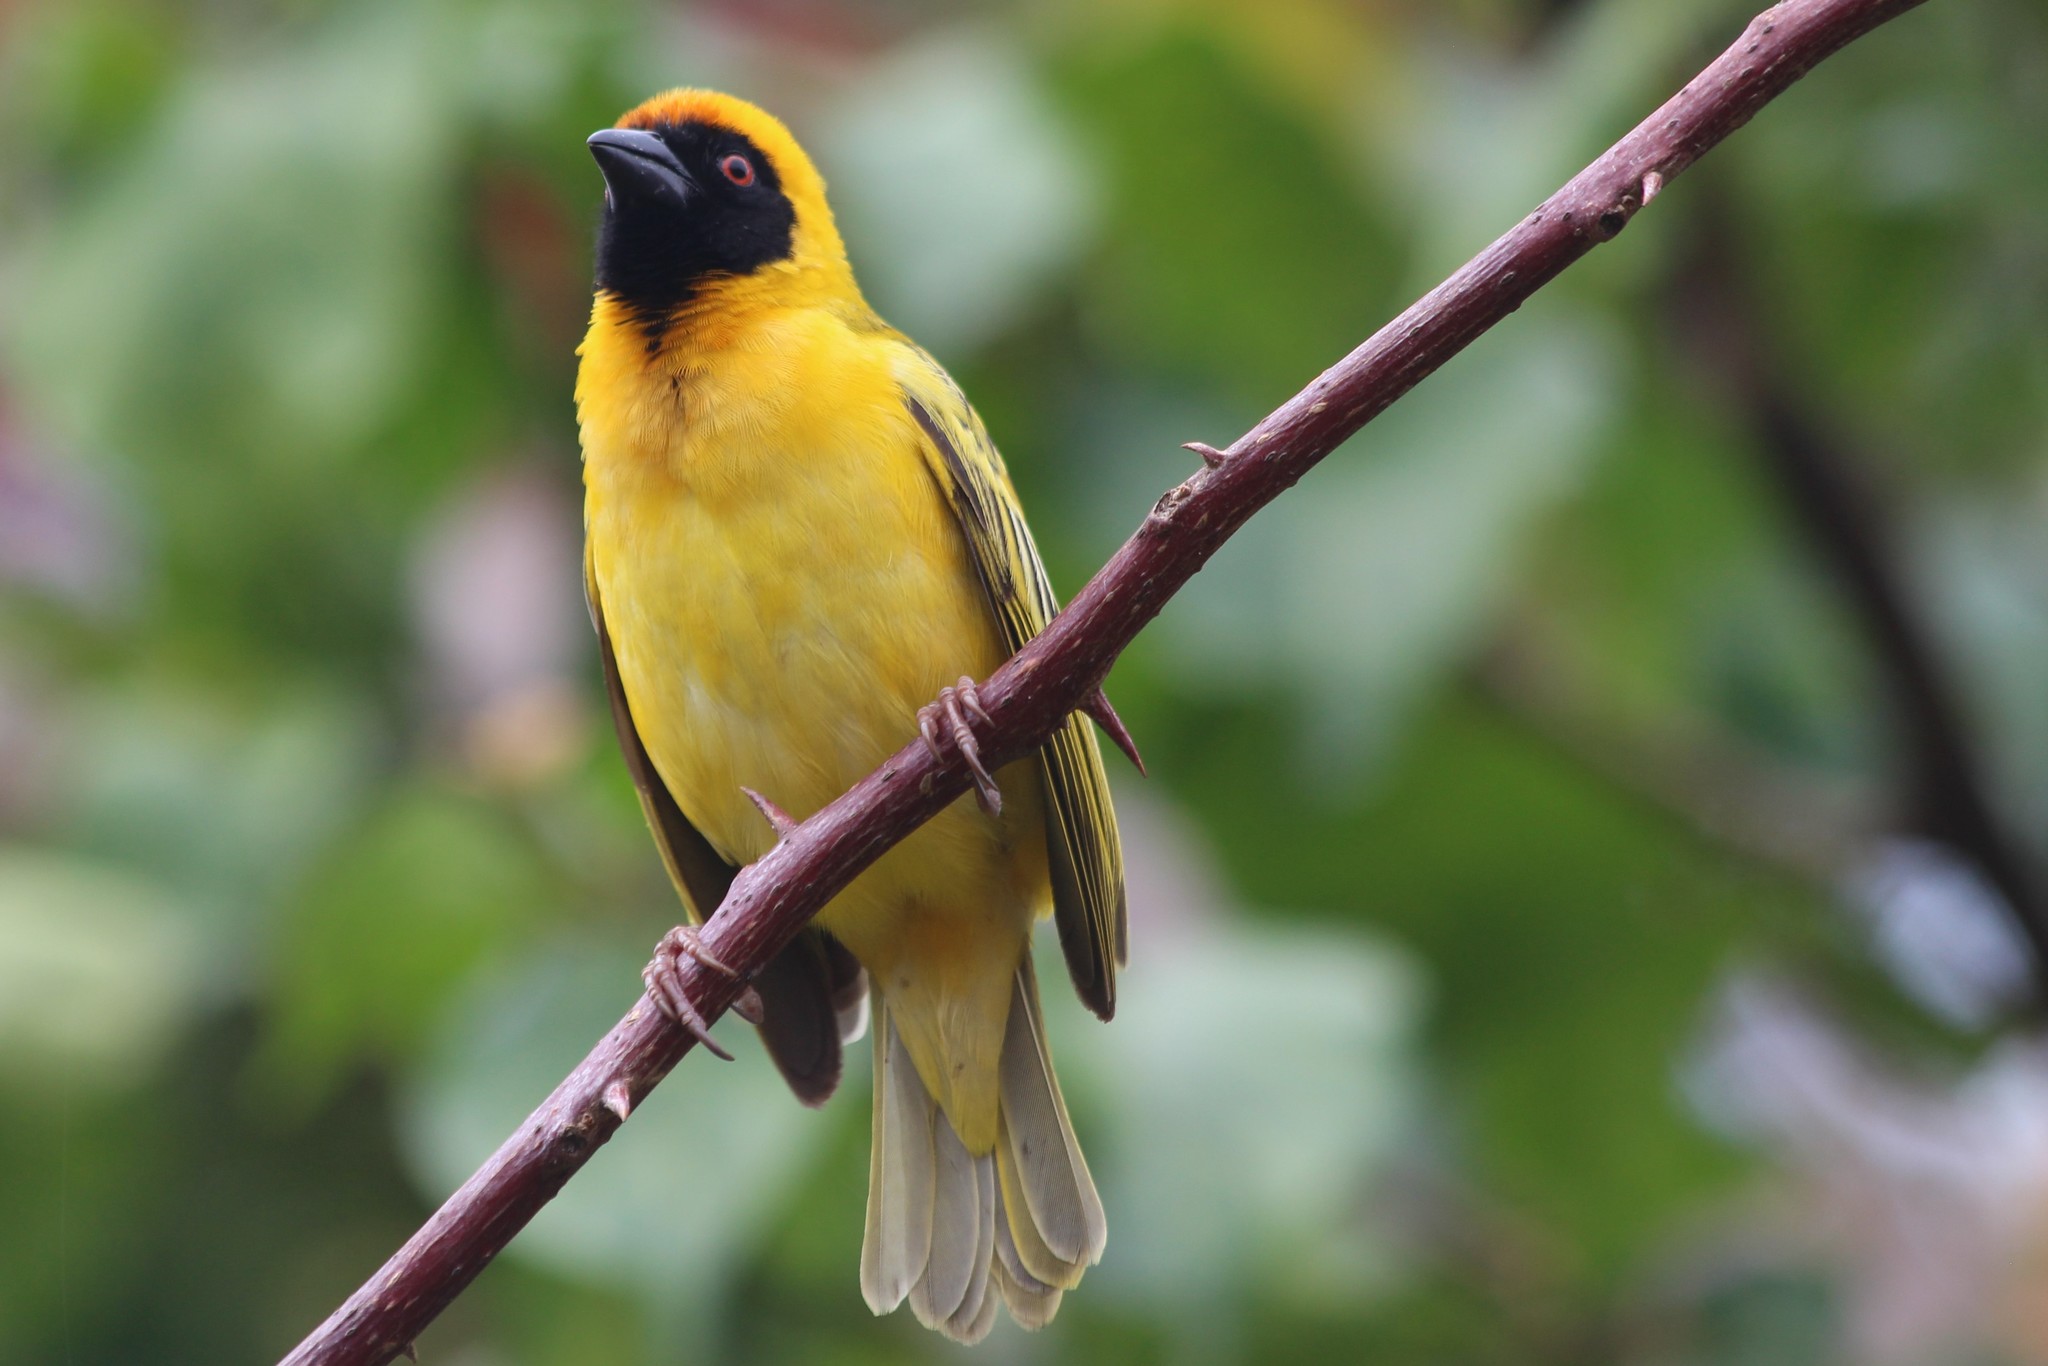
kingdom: Animalia
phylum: Chordata
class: Aves
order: Passeriformes
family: Ploceidae
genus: Ploceus
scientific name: Ploceus velatus
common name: Southern masked weaver
